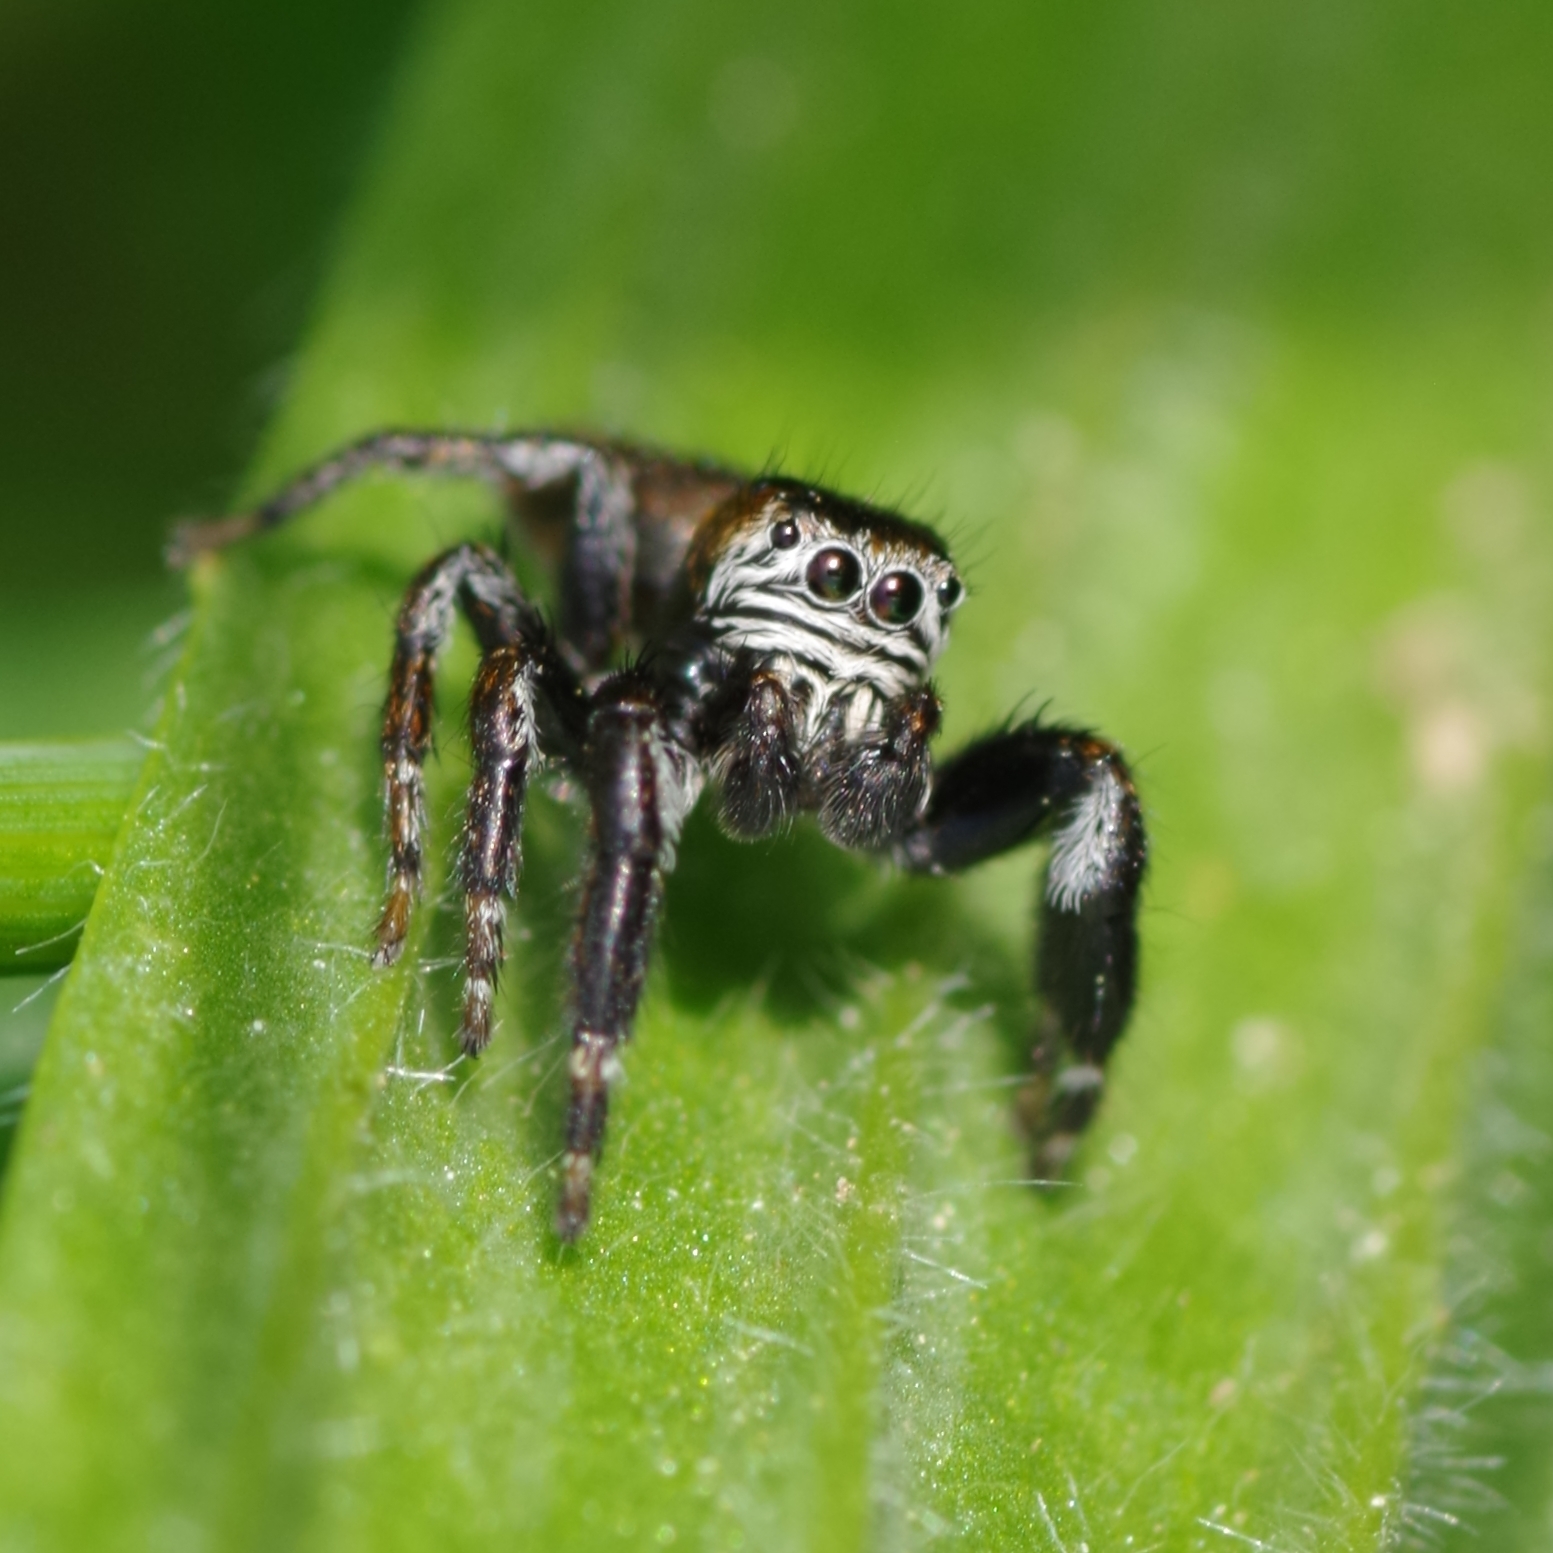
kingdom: Animalia
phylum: Arthropoda
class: Arachnida
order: Araneae
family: Salticidae
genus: Evarcha
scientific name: Evarcha arcuata
